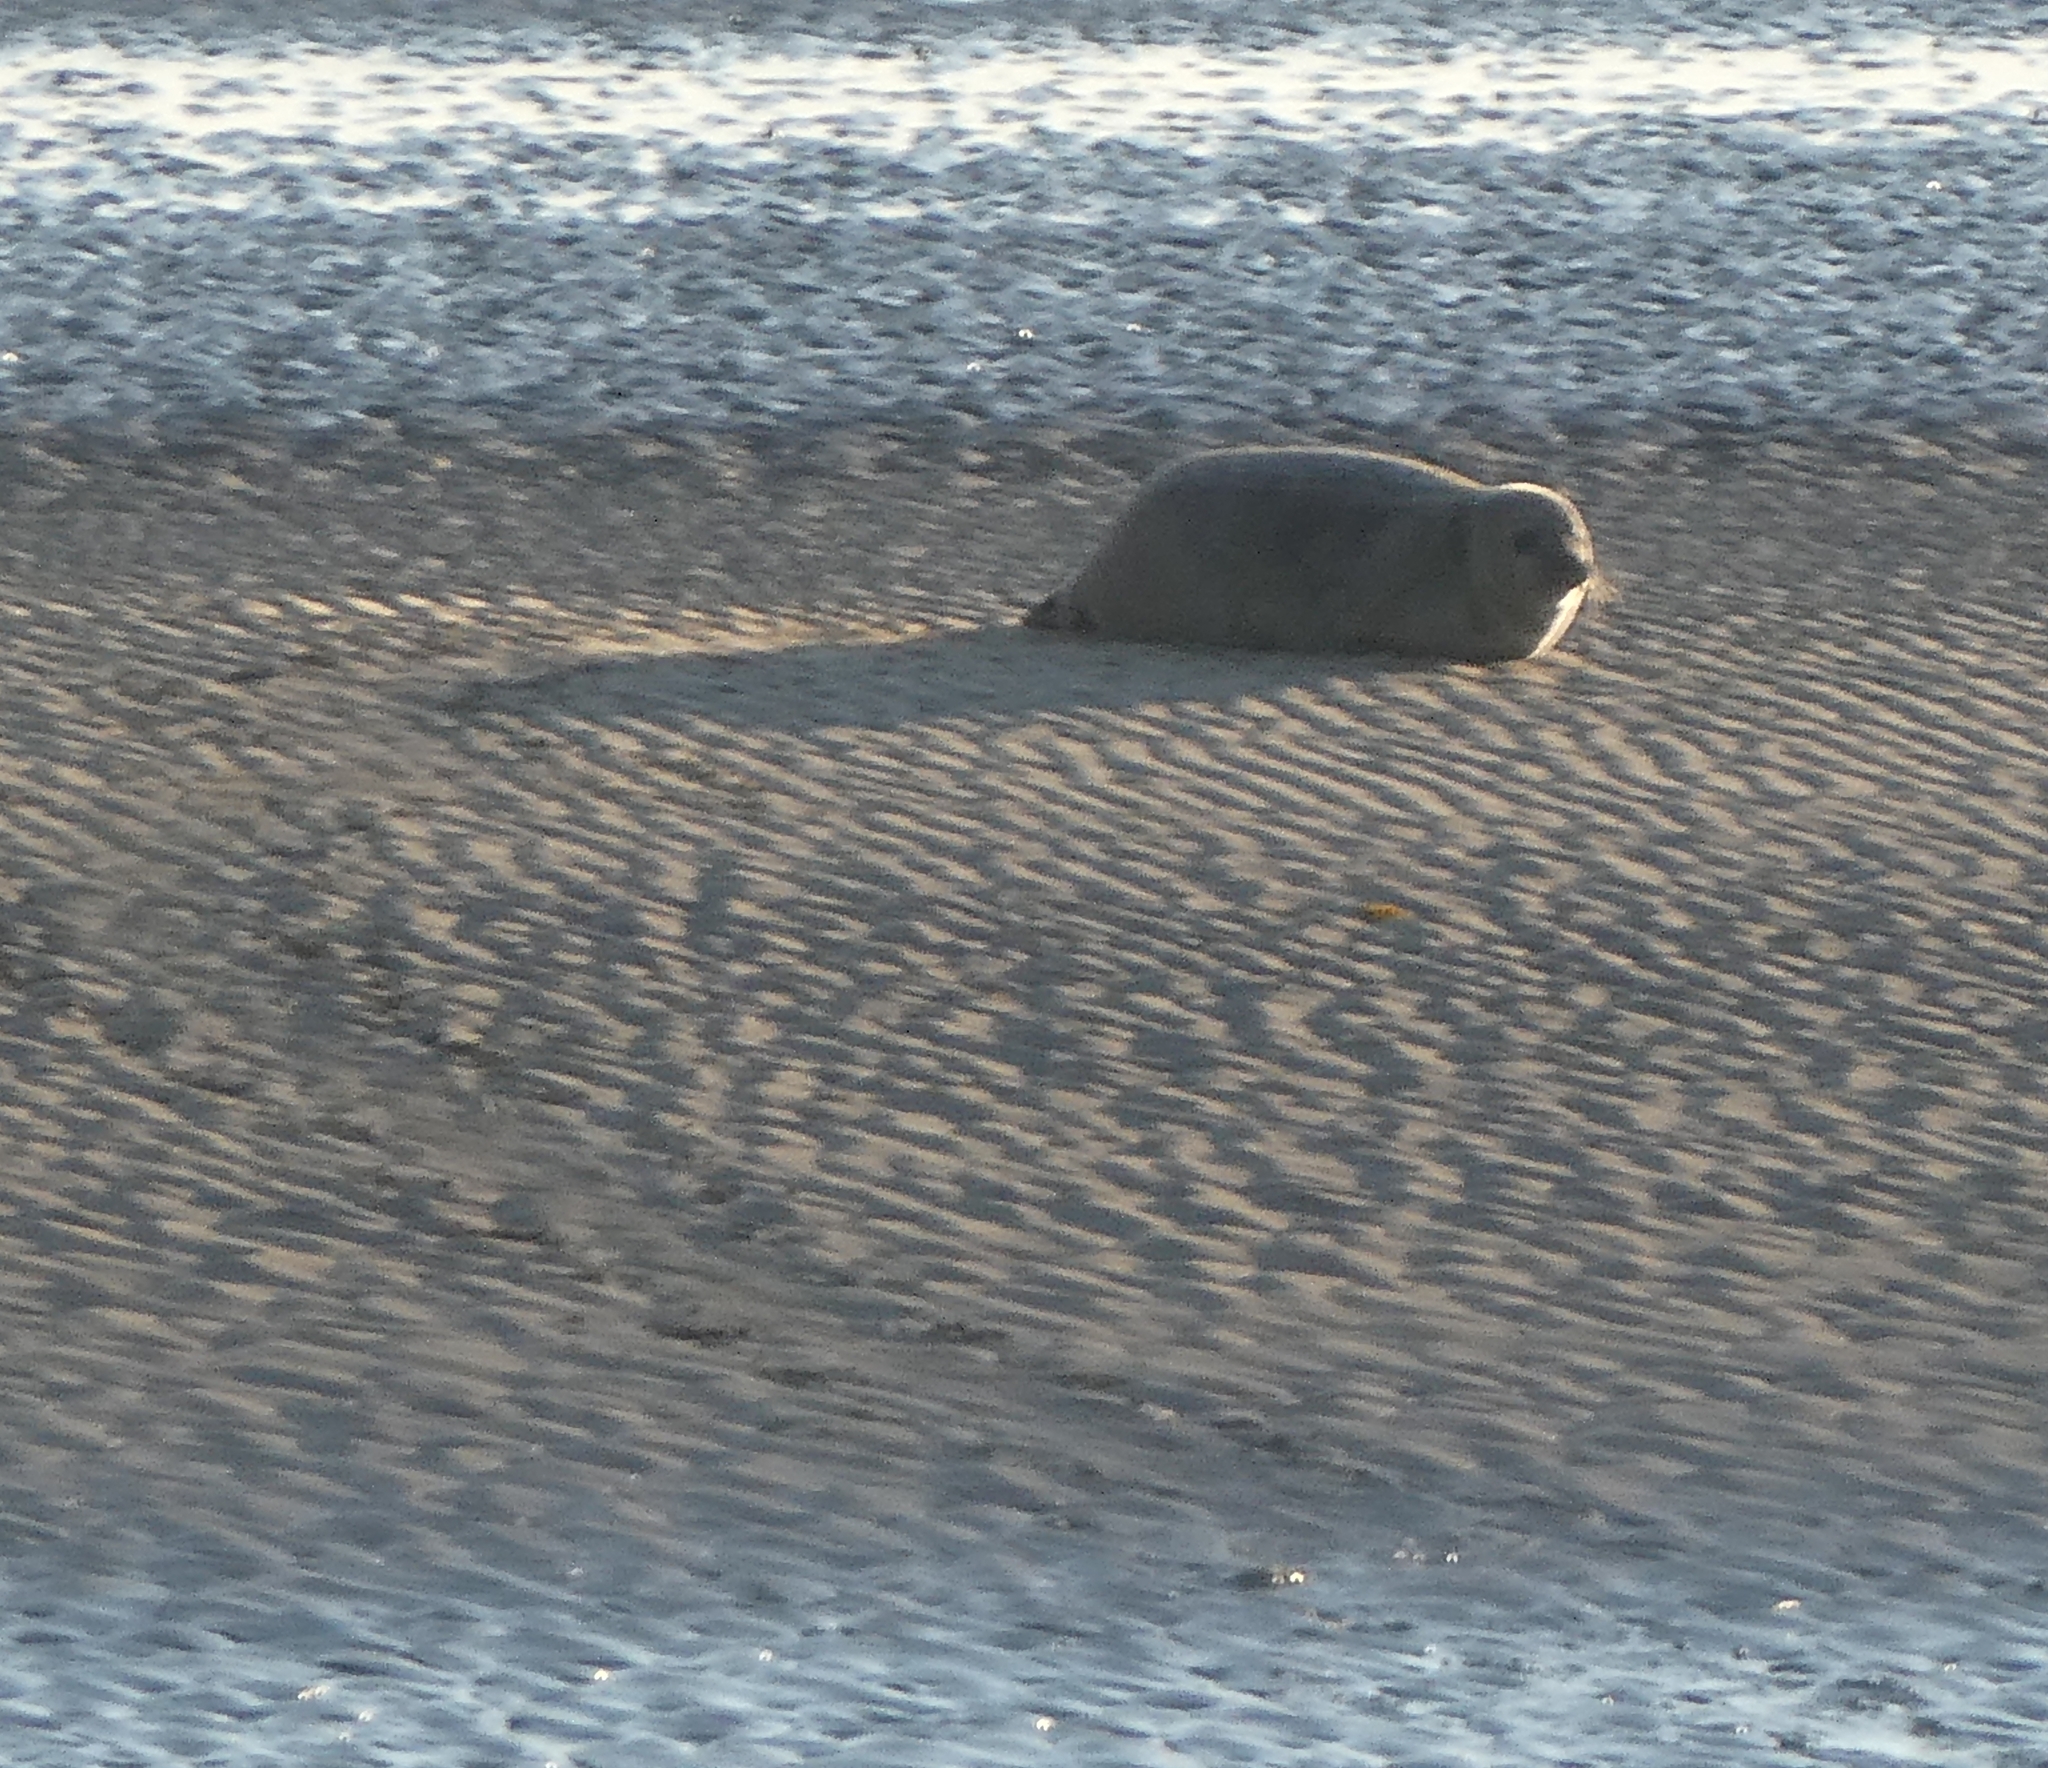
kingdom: Animalia
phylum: Chordata
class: Mammalia
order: Carnivora
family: Phocidae
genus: Phoca
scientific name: Phoca vitulina
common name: Harbor seal
